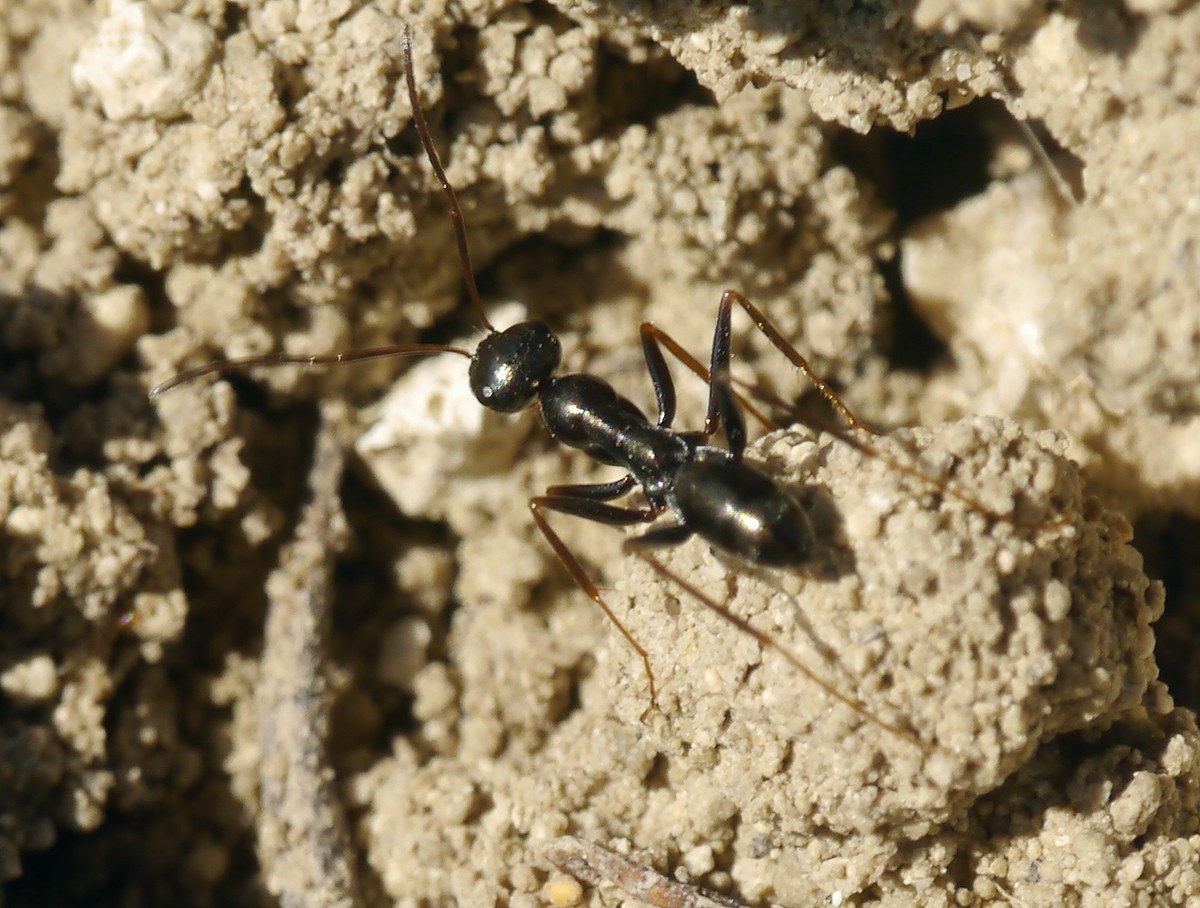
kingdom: Animalia
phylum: Arthropoda
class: Insecta
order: Hymenoptera
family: Formicidae
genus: Cataglyphis
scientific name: Cataglyphis aenescens
